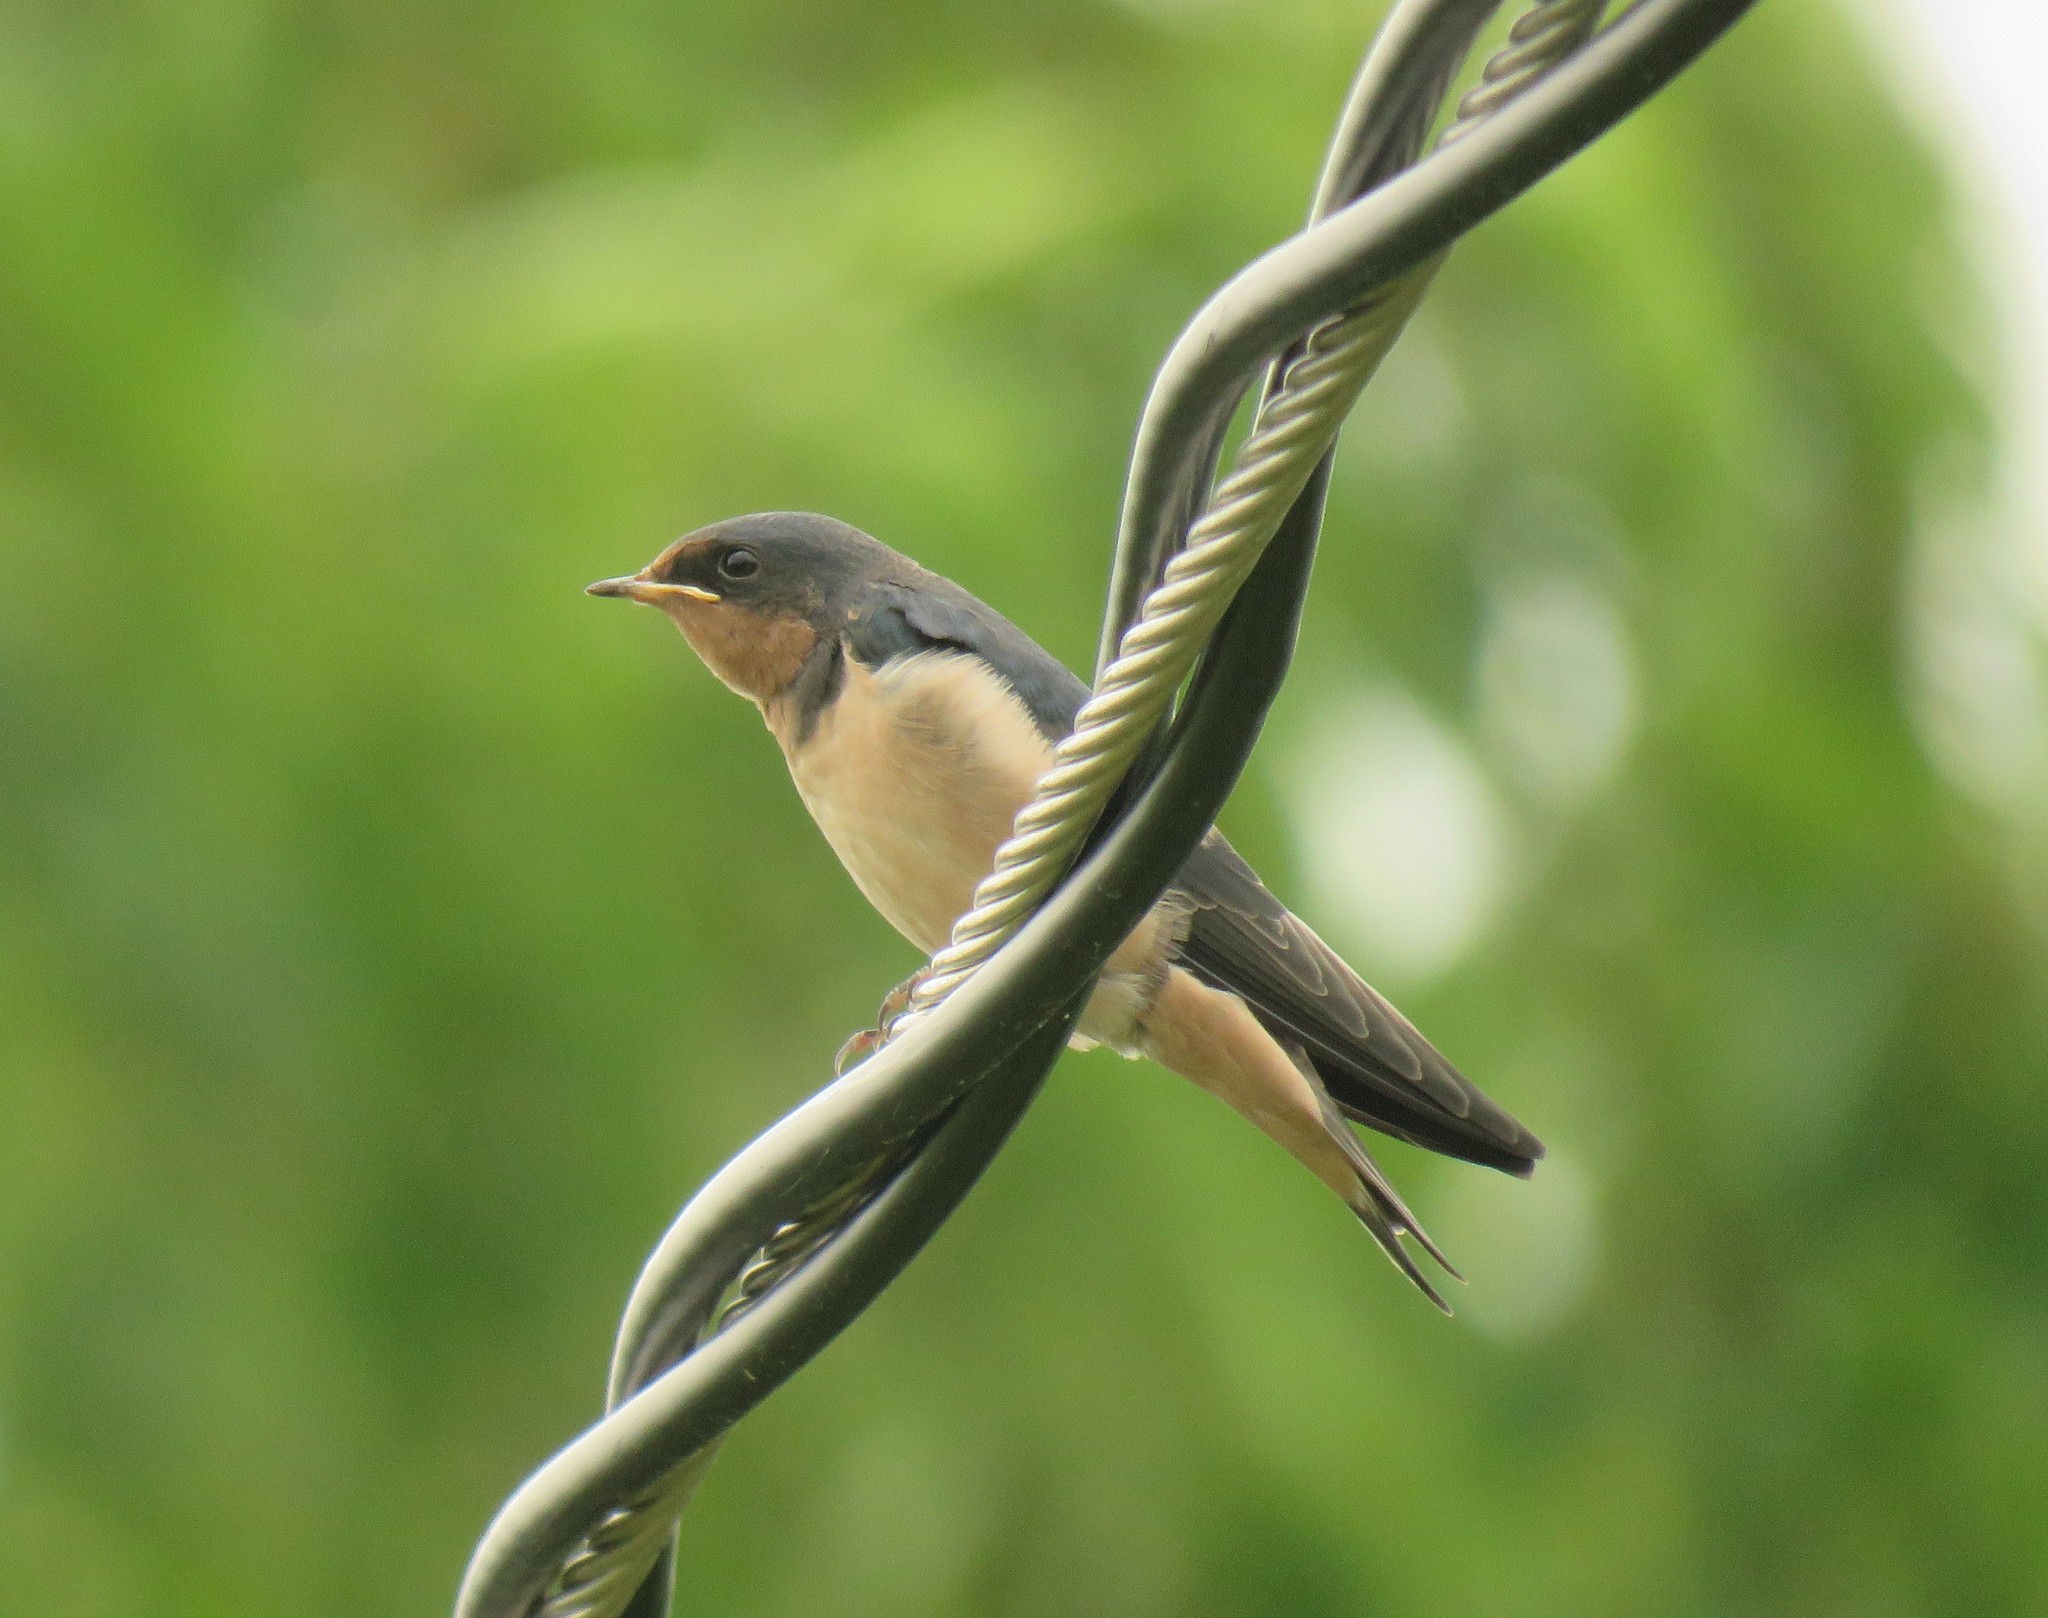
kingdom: Animalia
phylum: Chordata
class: Aves
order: Passeriformes
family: Hirundinidae
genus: Hirundo
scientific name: Hirundo rustica
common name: Barn swallow
